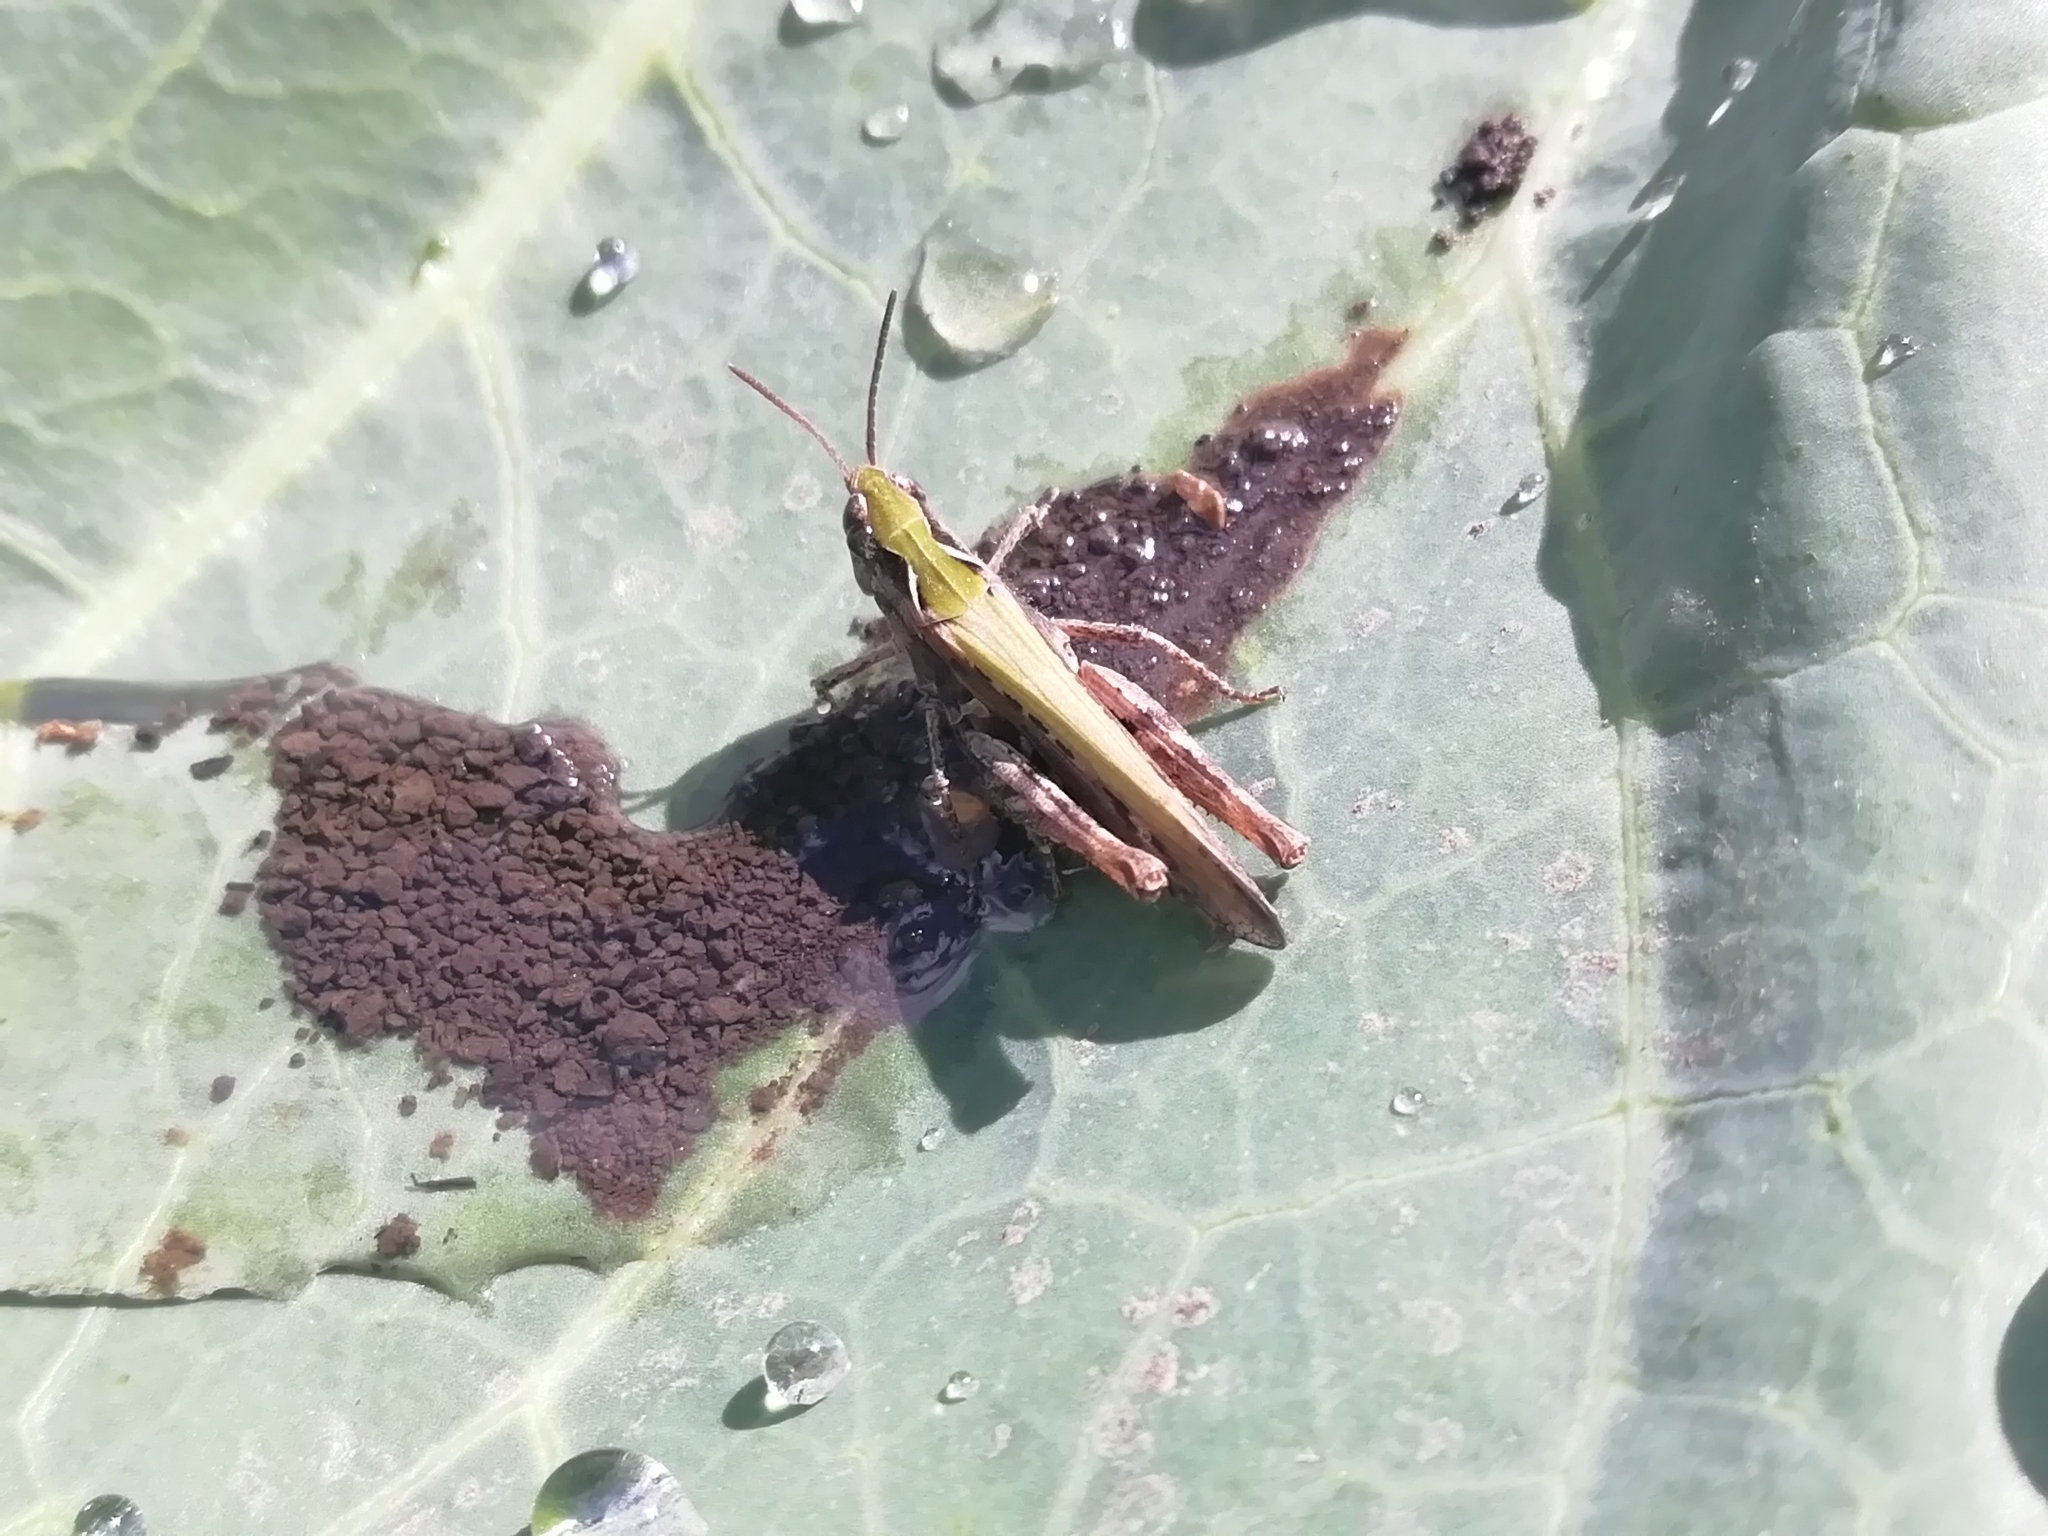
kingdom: Animalia
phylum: Arthropoda
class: Insecta
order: Orthoptera
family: Acrididae
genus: Chorthippus
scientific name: Chorthippus biguttulus
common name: Bow-winged grasshopper
